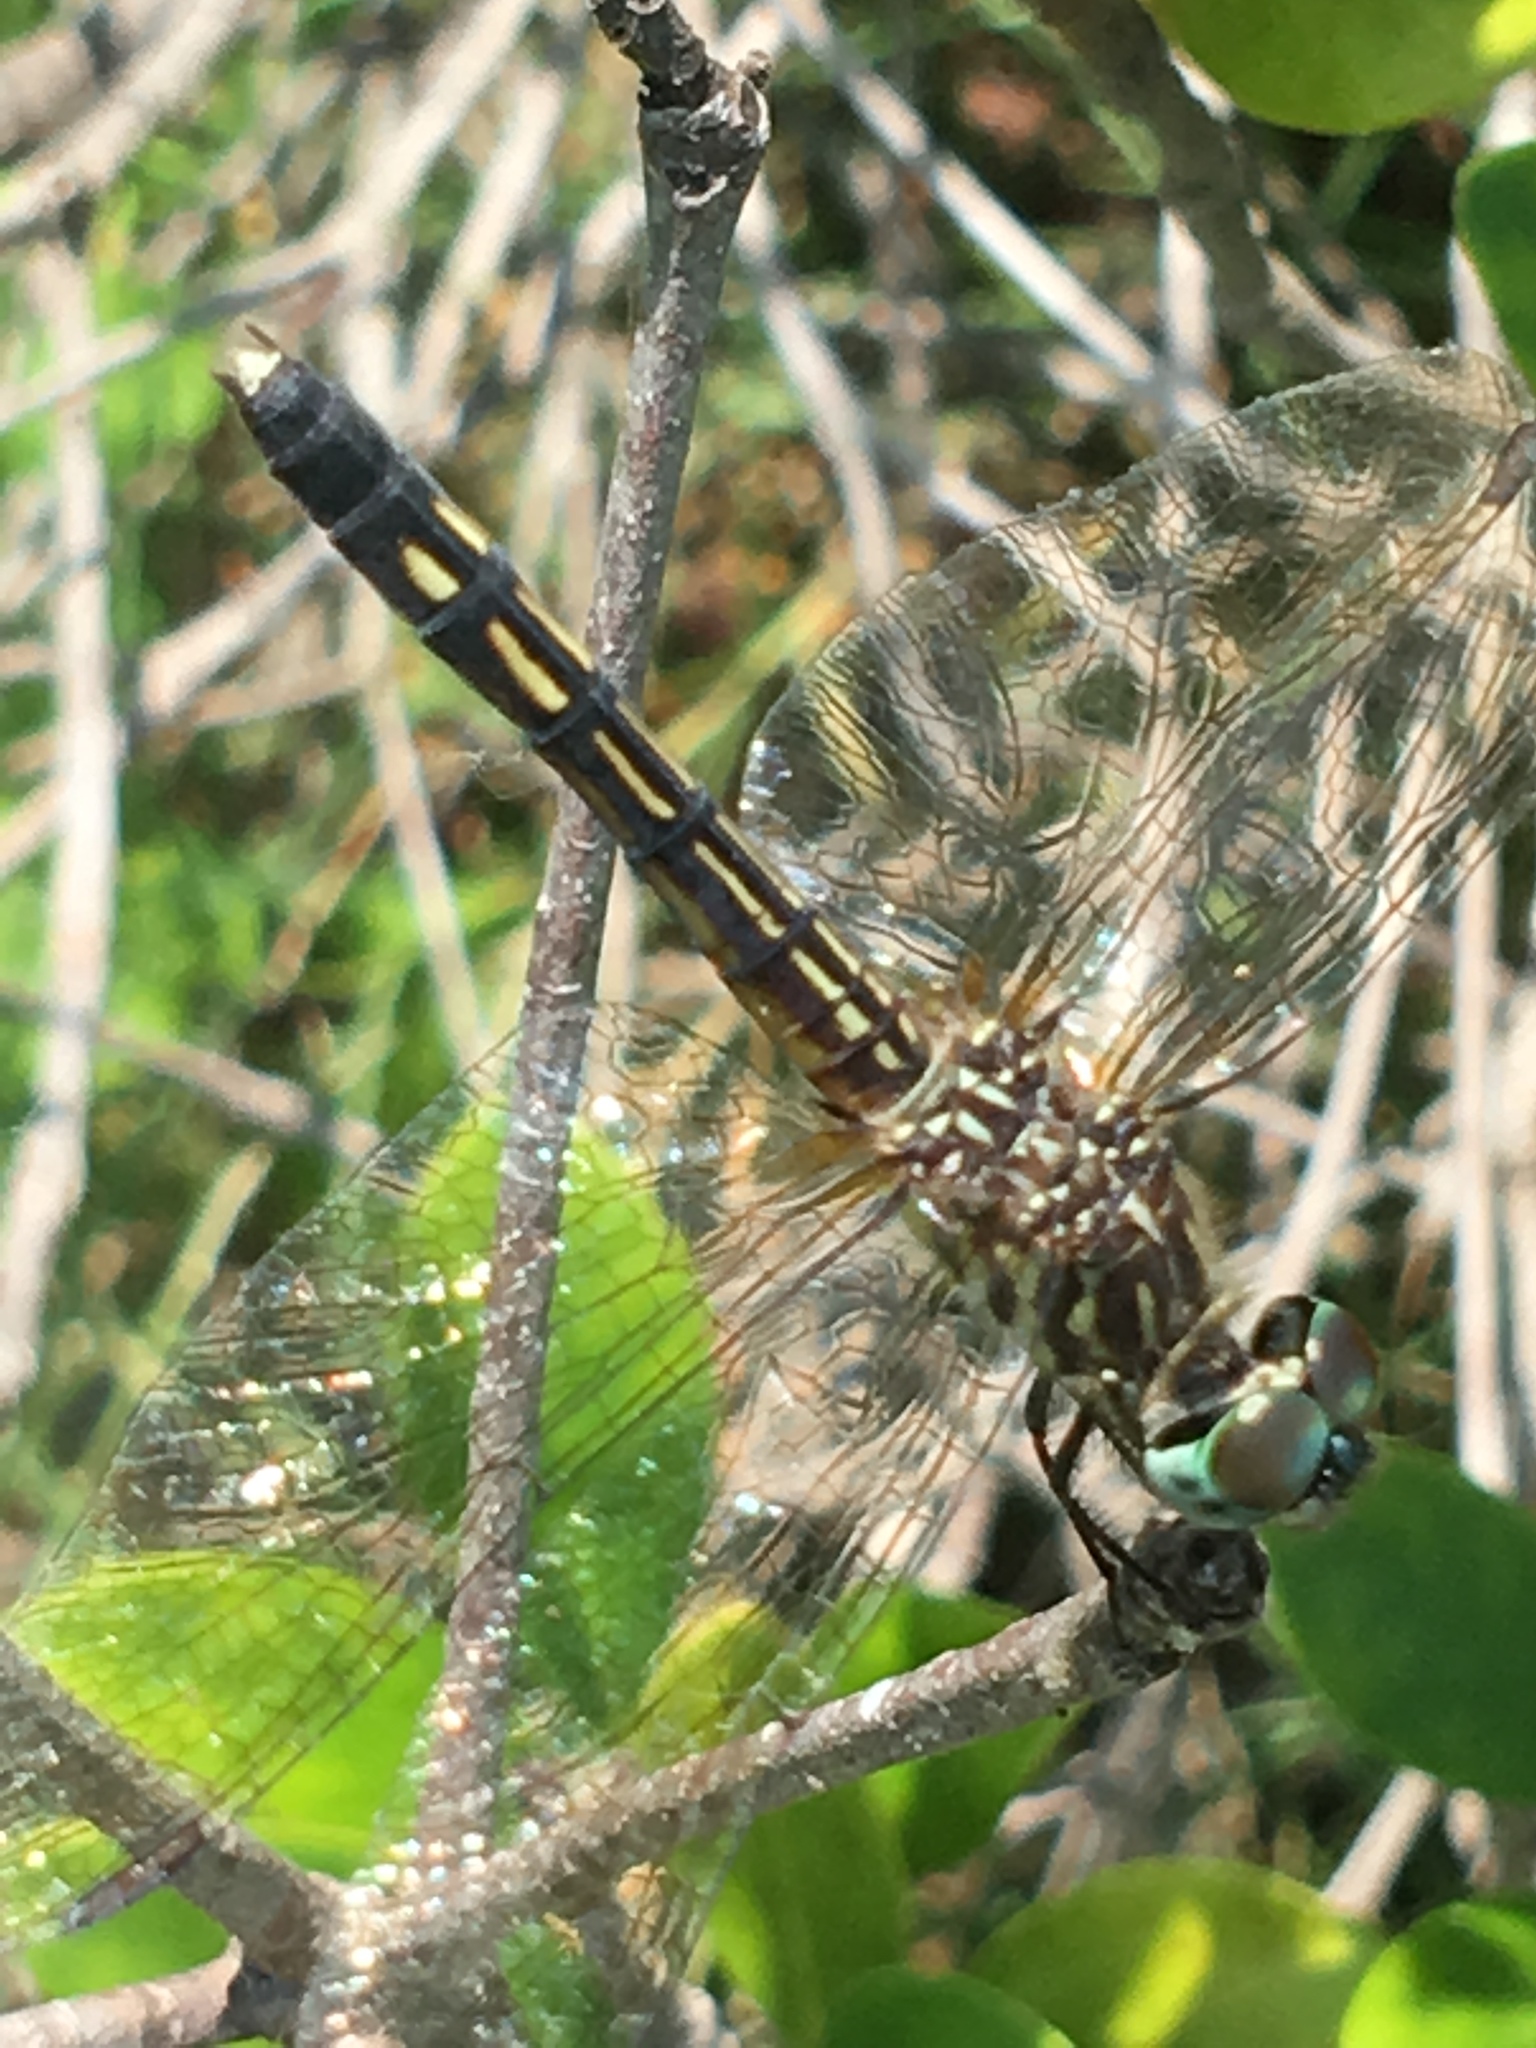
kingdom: Animalia
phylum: Arthropoda
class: Insecta
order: Odonata
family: Libellulidae
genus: Pachydiplax
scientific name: Pachydiplax longipennis
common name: Blue dasher
